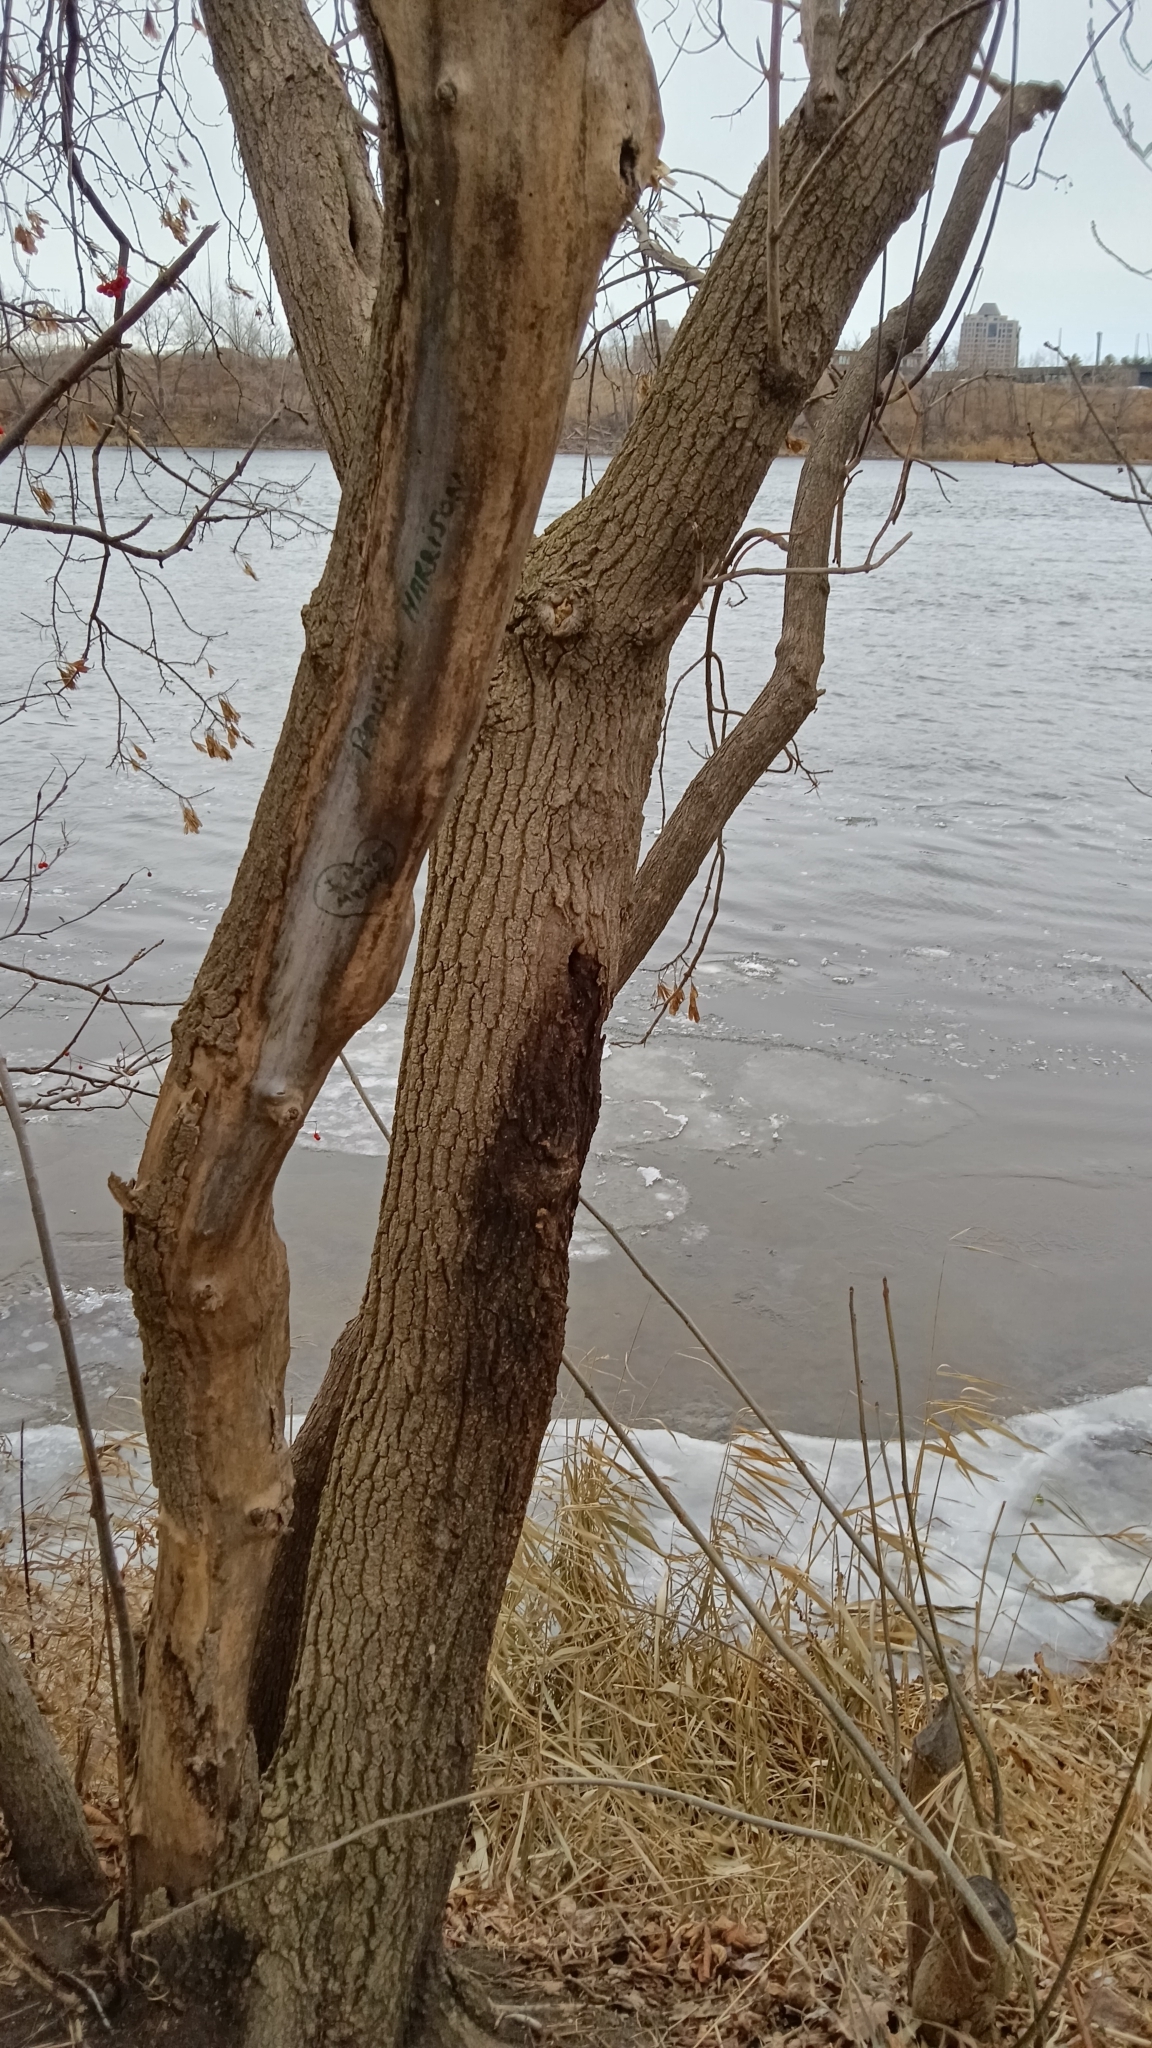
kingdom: Plantae
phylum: Tracheophyta
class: Magnoliopsida
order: Sapindales
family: Sapindaceae
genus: Acer
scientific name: Acer negundo
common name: Ashleaf maple
